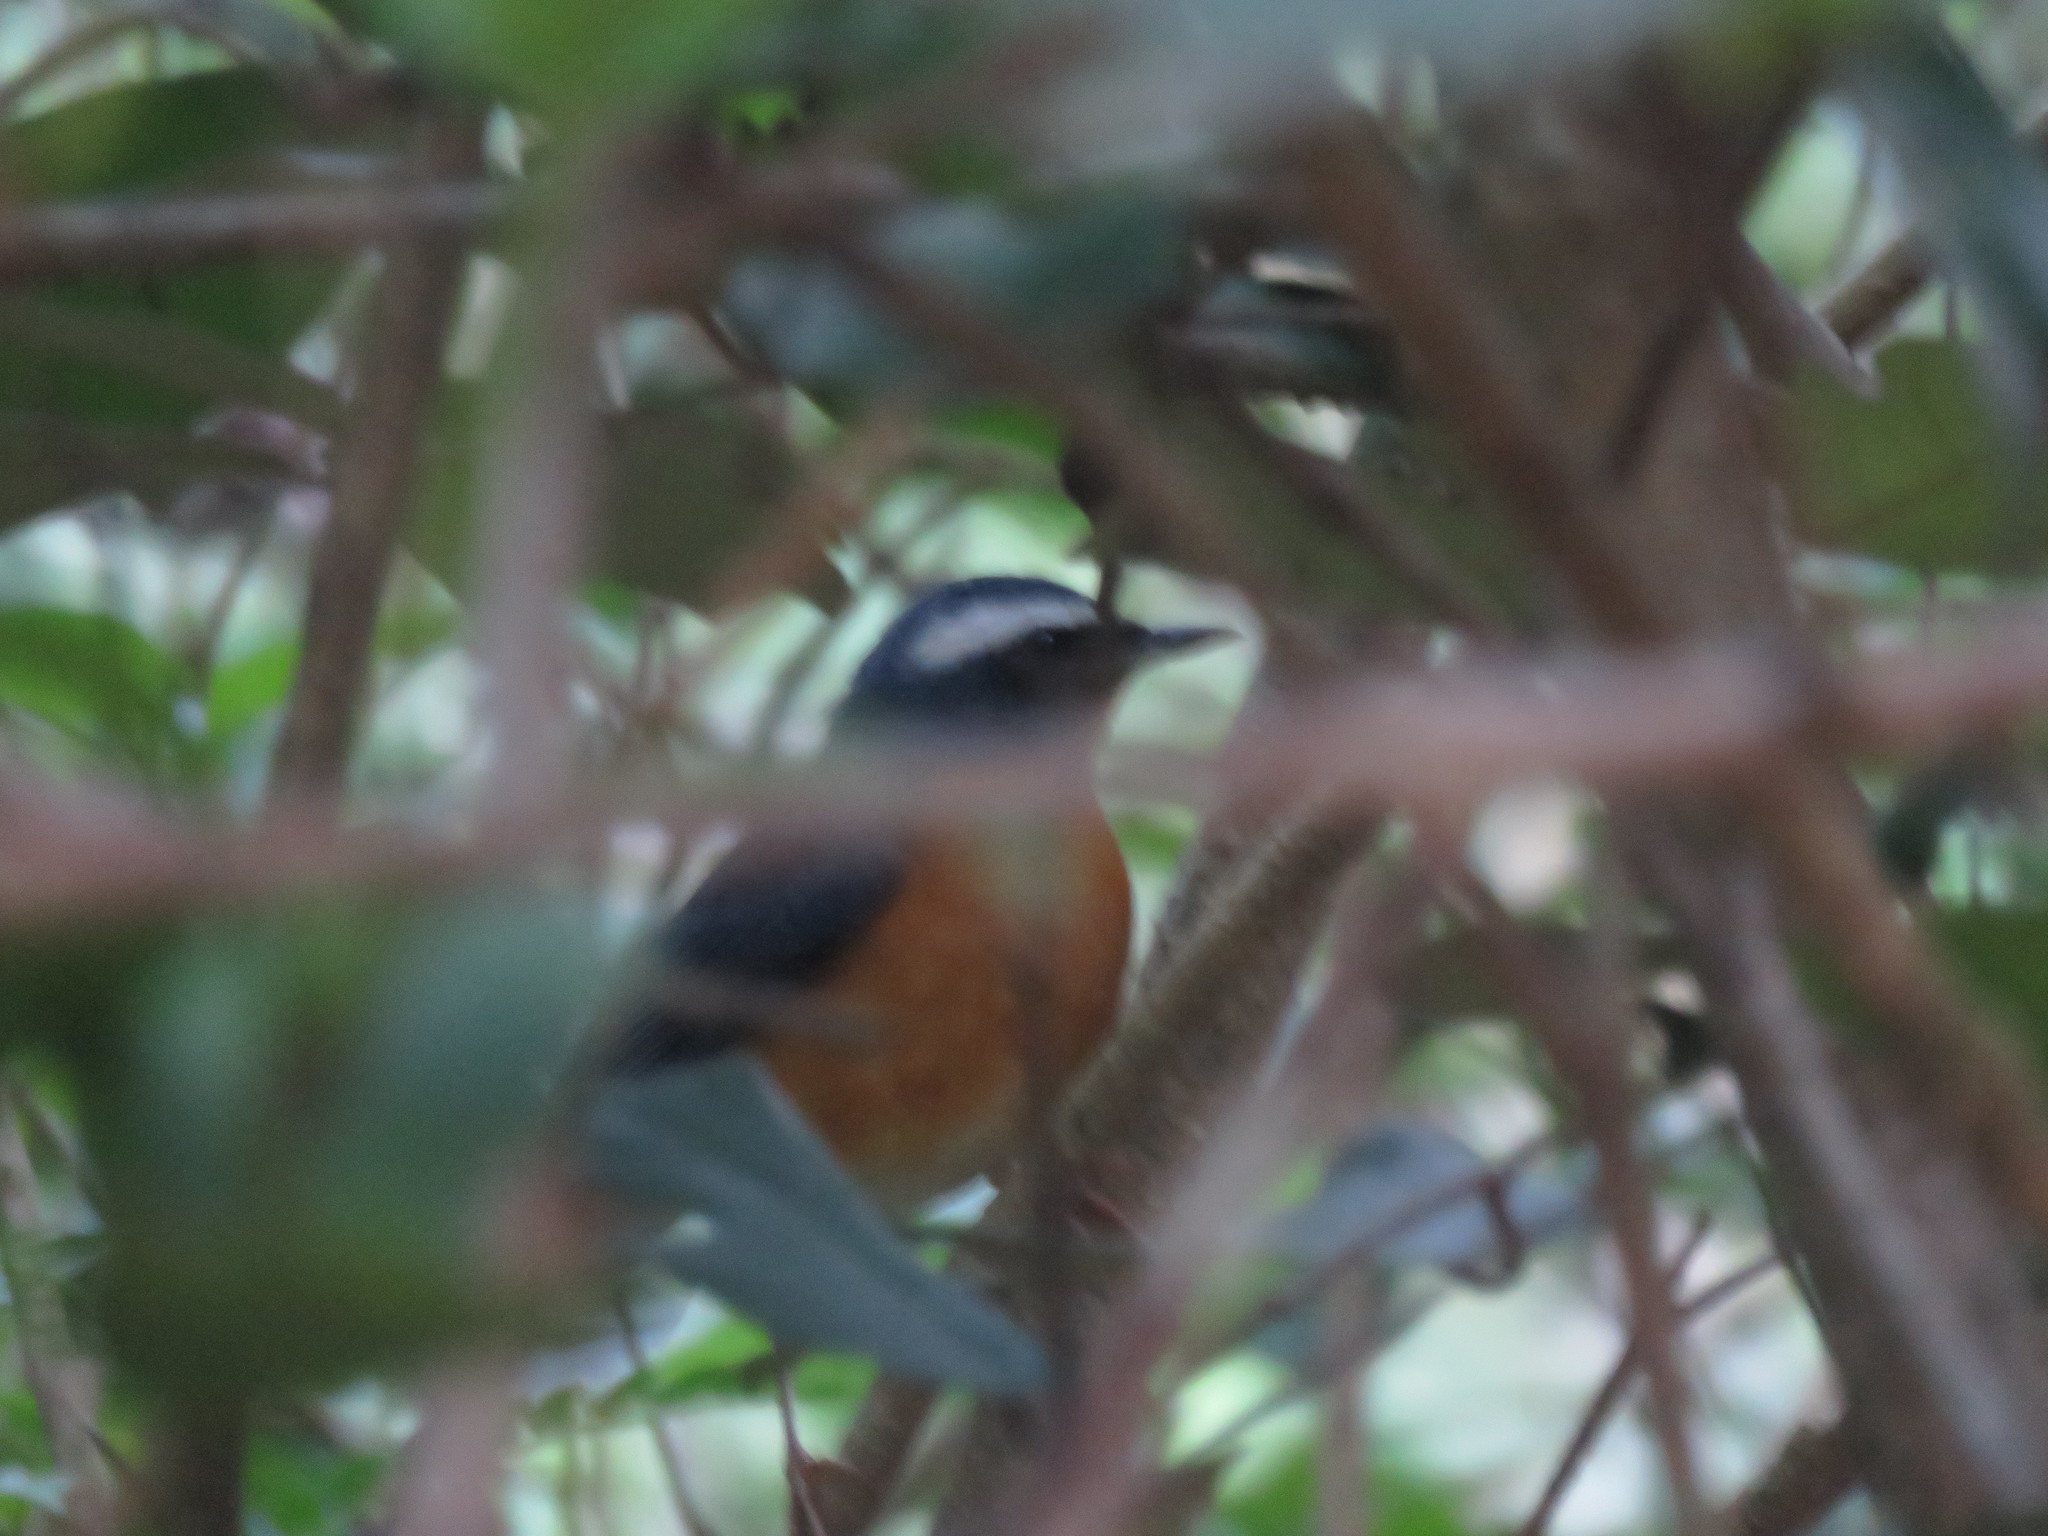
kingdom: Animalia
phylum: Chordata
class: Aves
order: Passeriformes
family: Muscicapidae
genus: Luscinia
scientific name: Luscinia brunnea
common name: Indian blue robin
